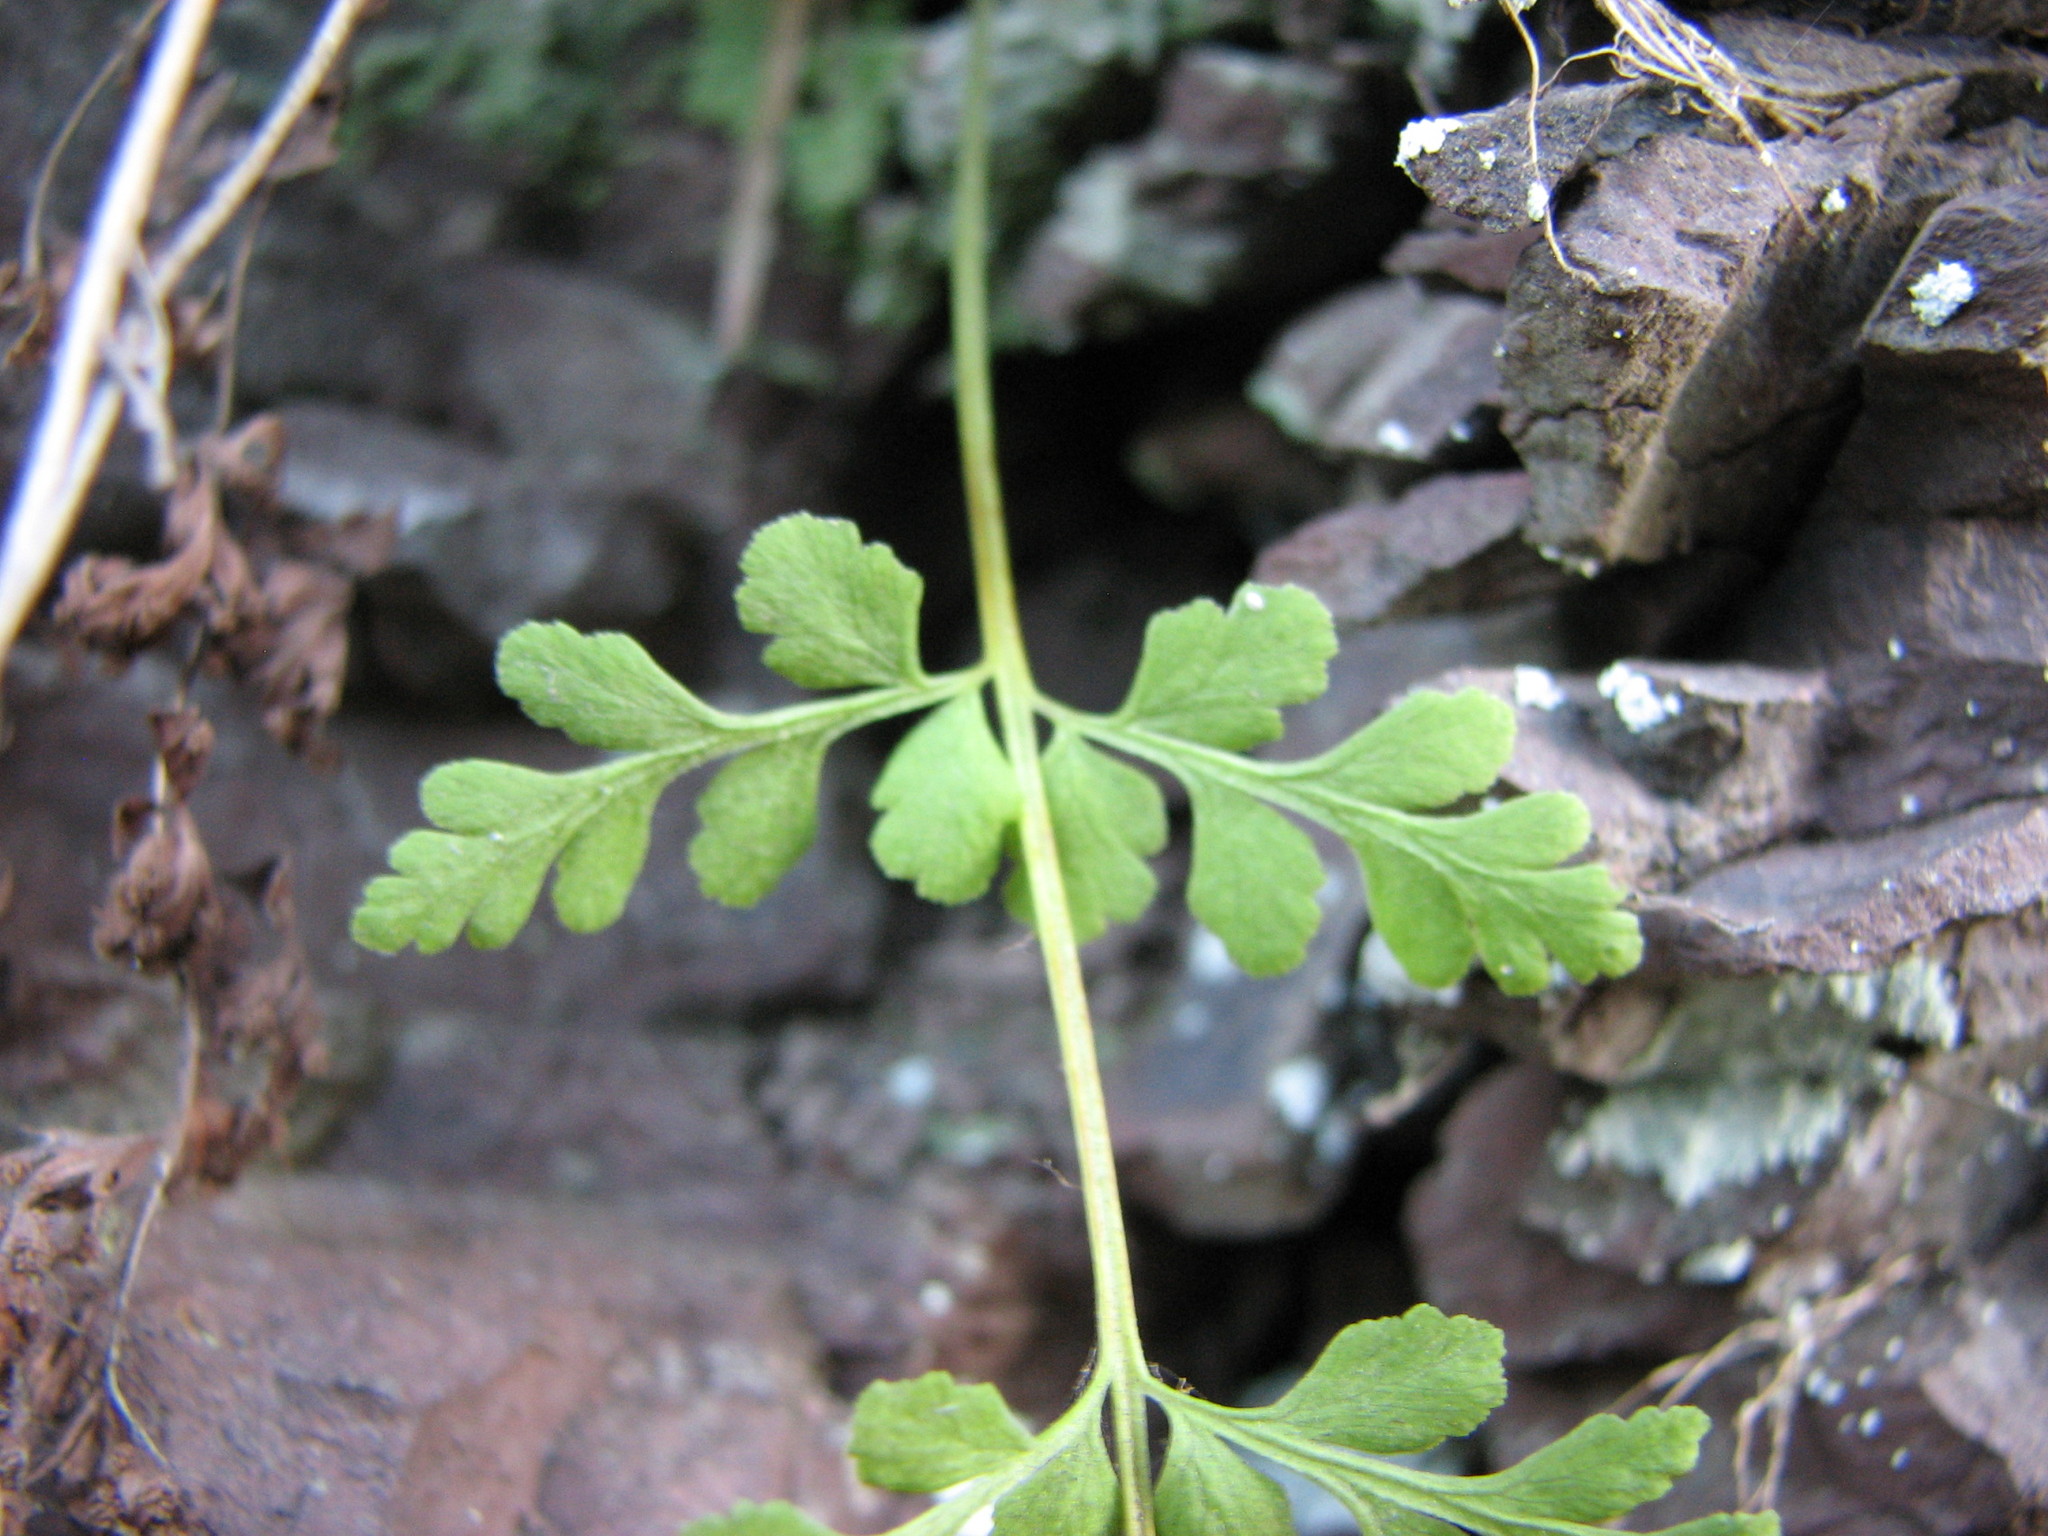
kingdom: Plantae
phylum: Tracheophyta
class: Polypodiopsida
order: Polypodiales
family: Cystopteridaceae
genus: Cystopteris
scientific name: Cystopteris tenuis
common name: Mackay's brittle fern
